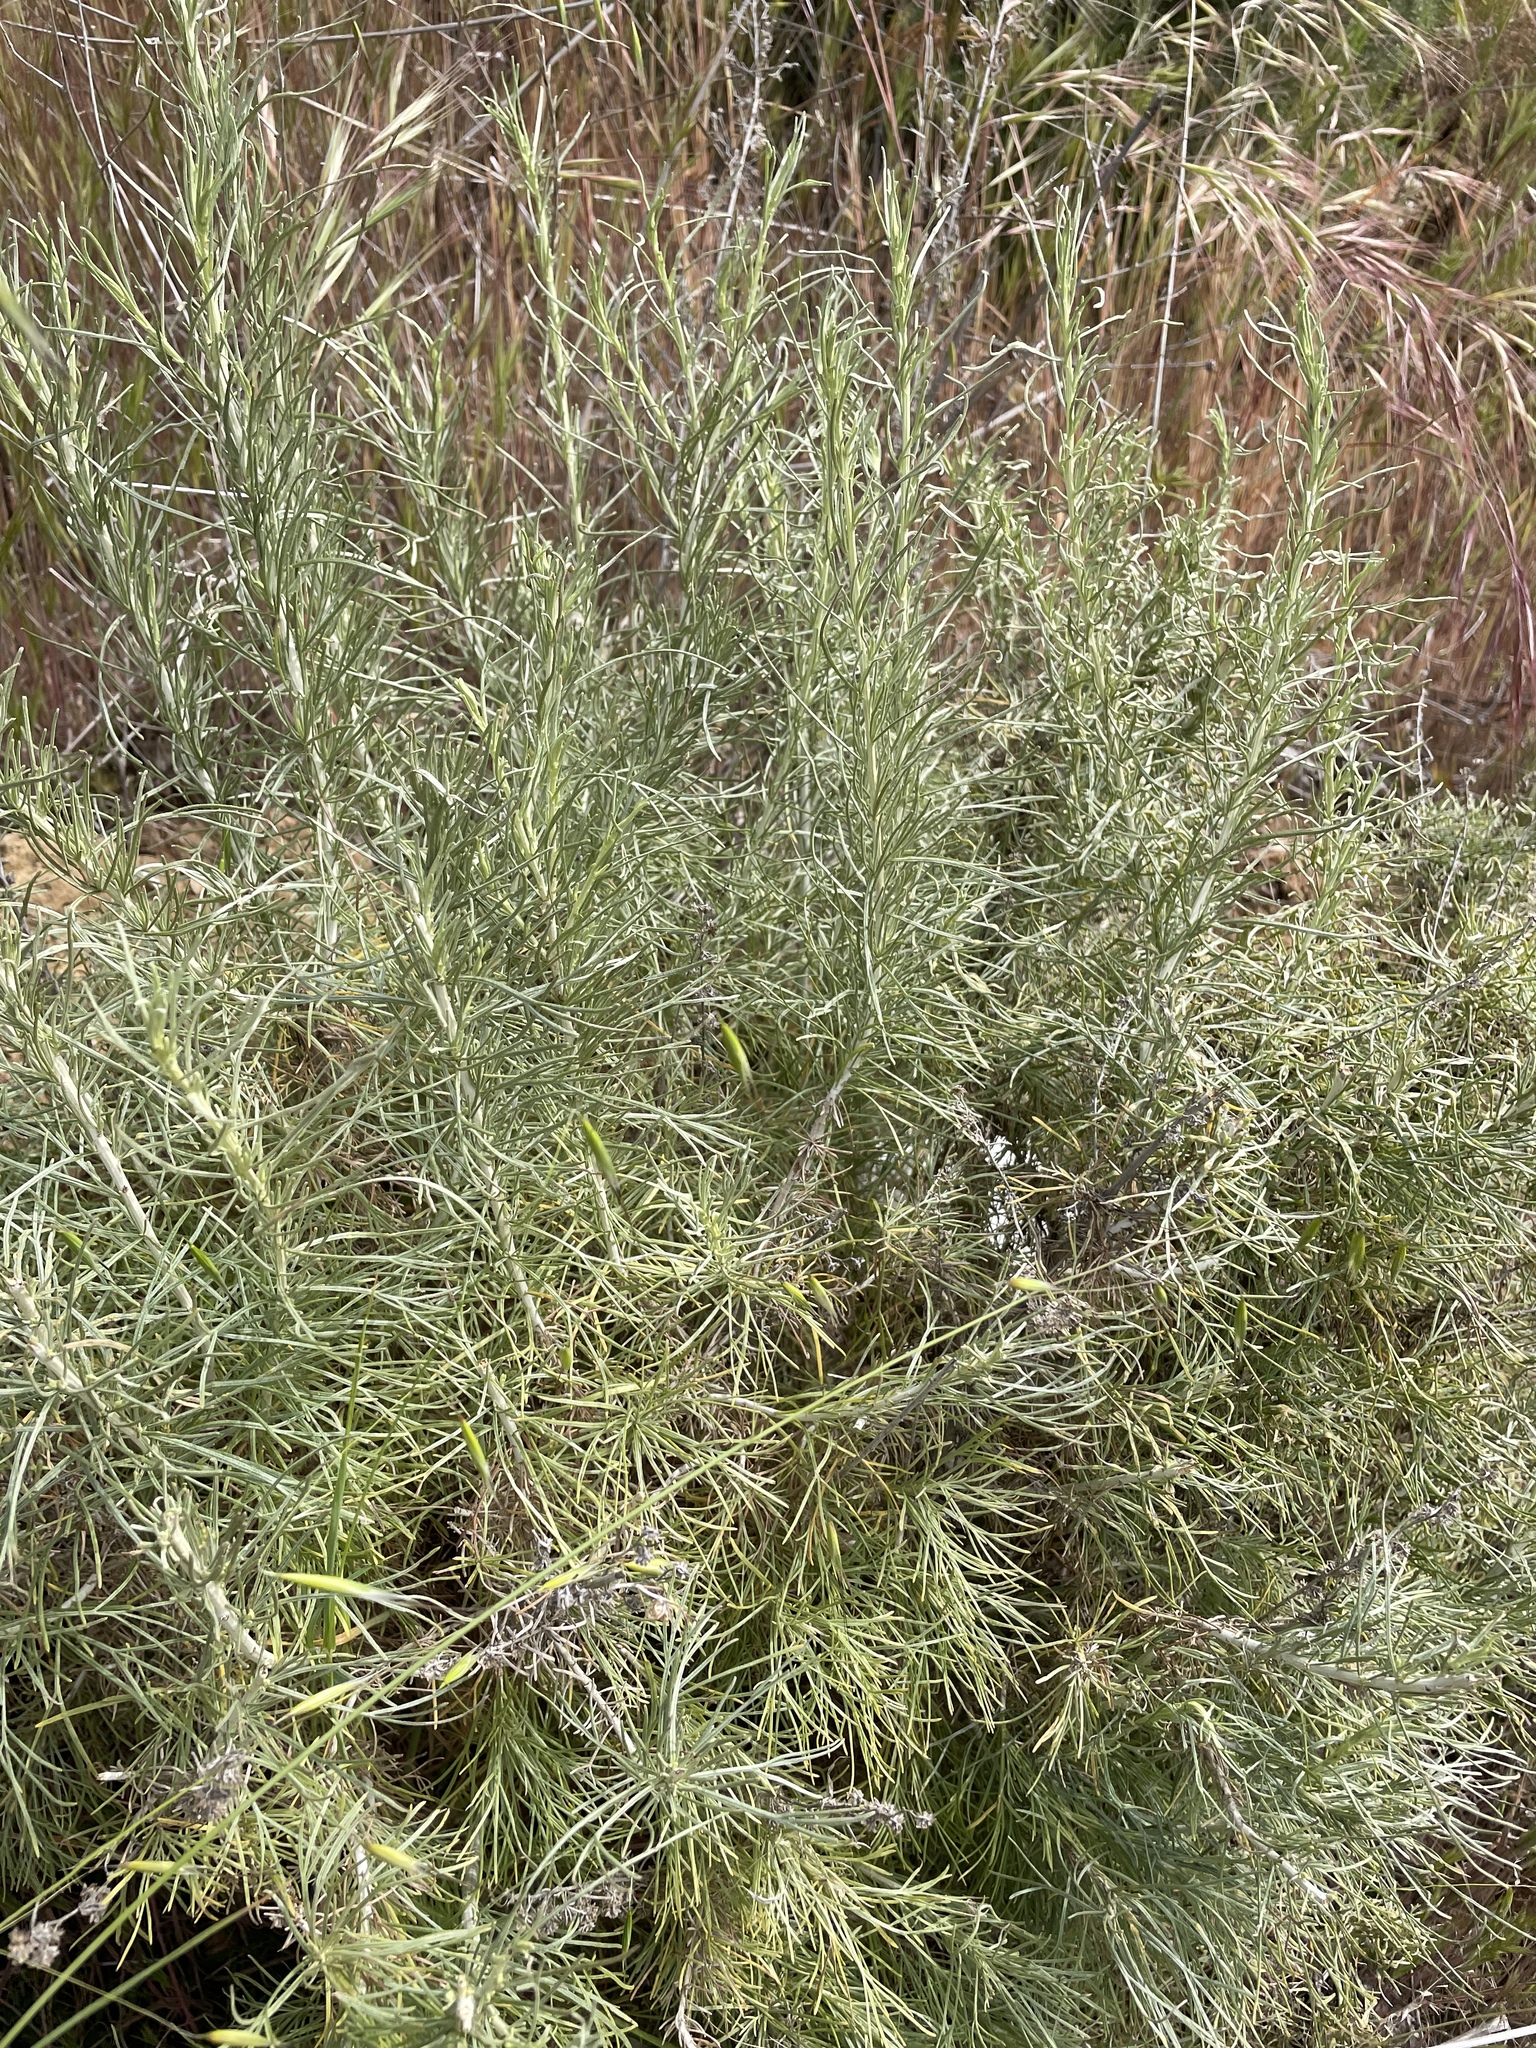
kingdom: Plantae
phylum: Tracheophyta
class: Magnoliopsida
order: Asterales
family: Asteraceae
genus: Artemisia
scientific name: Artemisia californica
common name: California sagebrush
